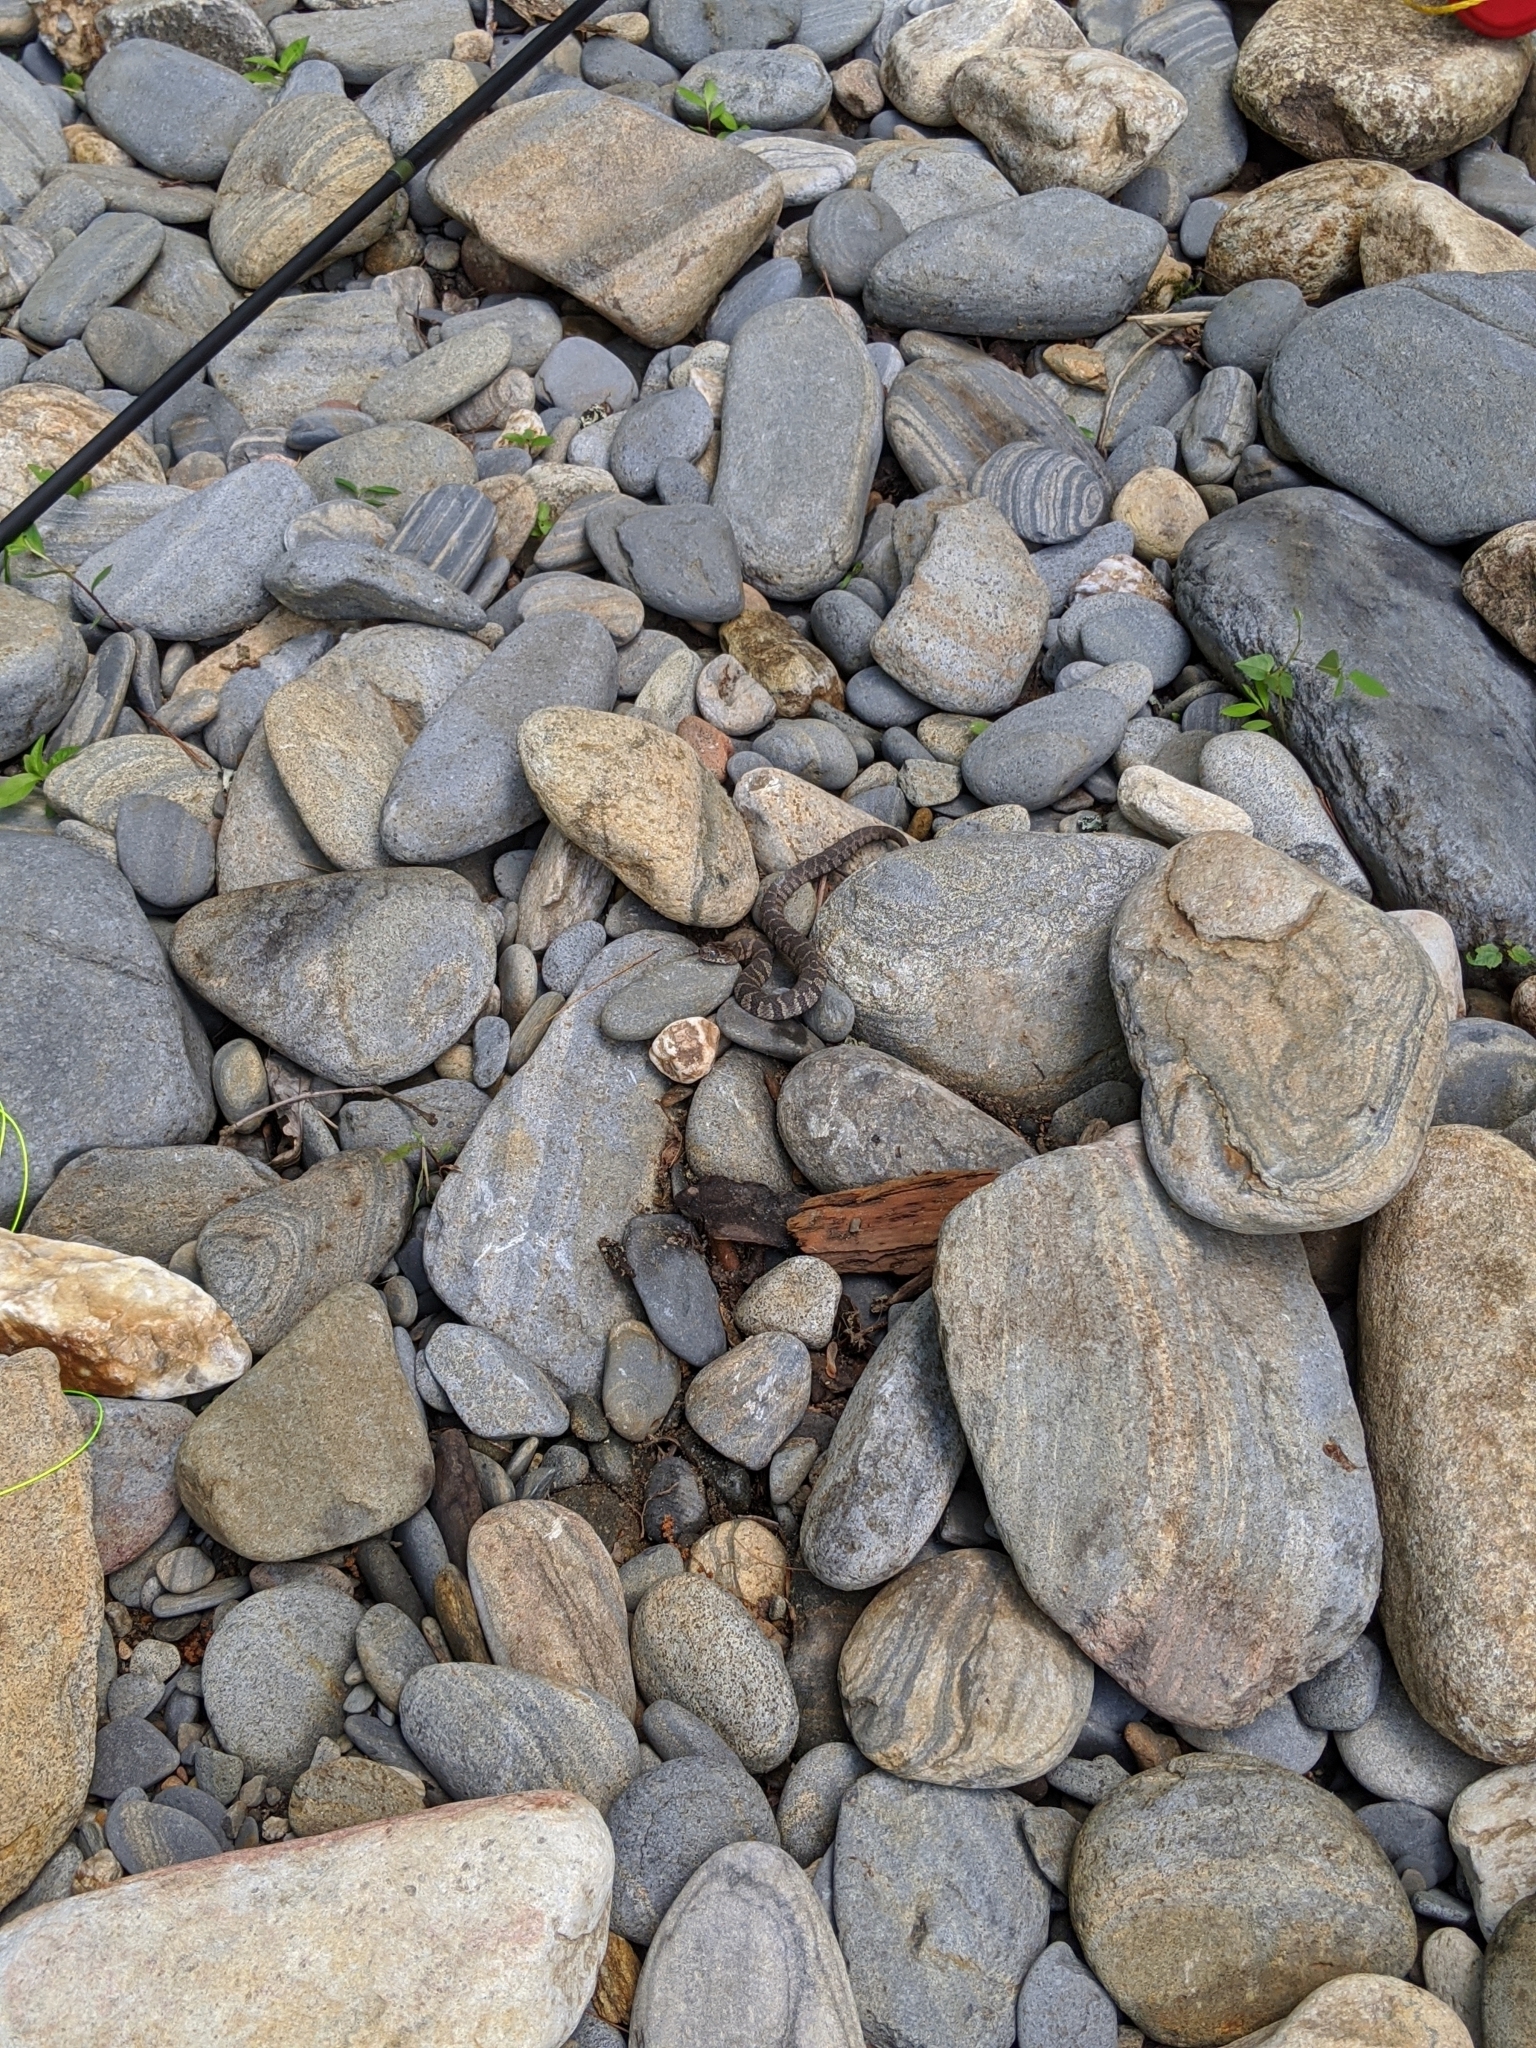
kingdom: Animalia
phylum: Chordata
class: Squamata
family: Colubridae
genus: Nerodia
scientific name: Nerodia sipedon
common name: Northern water snake
